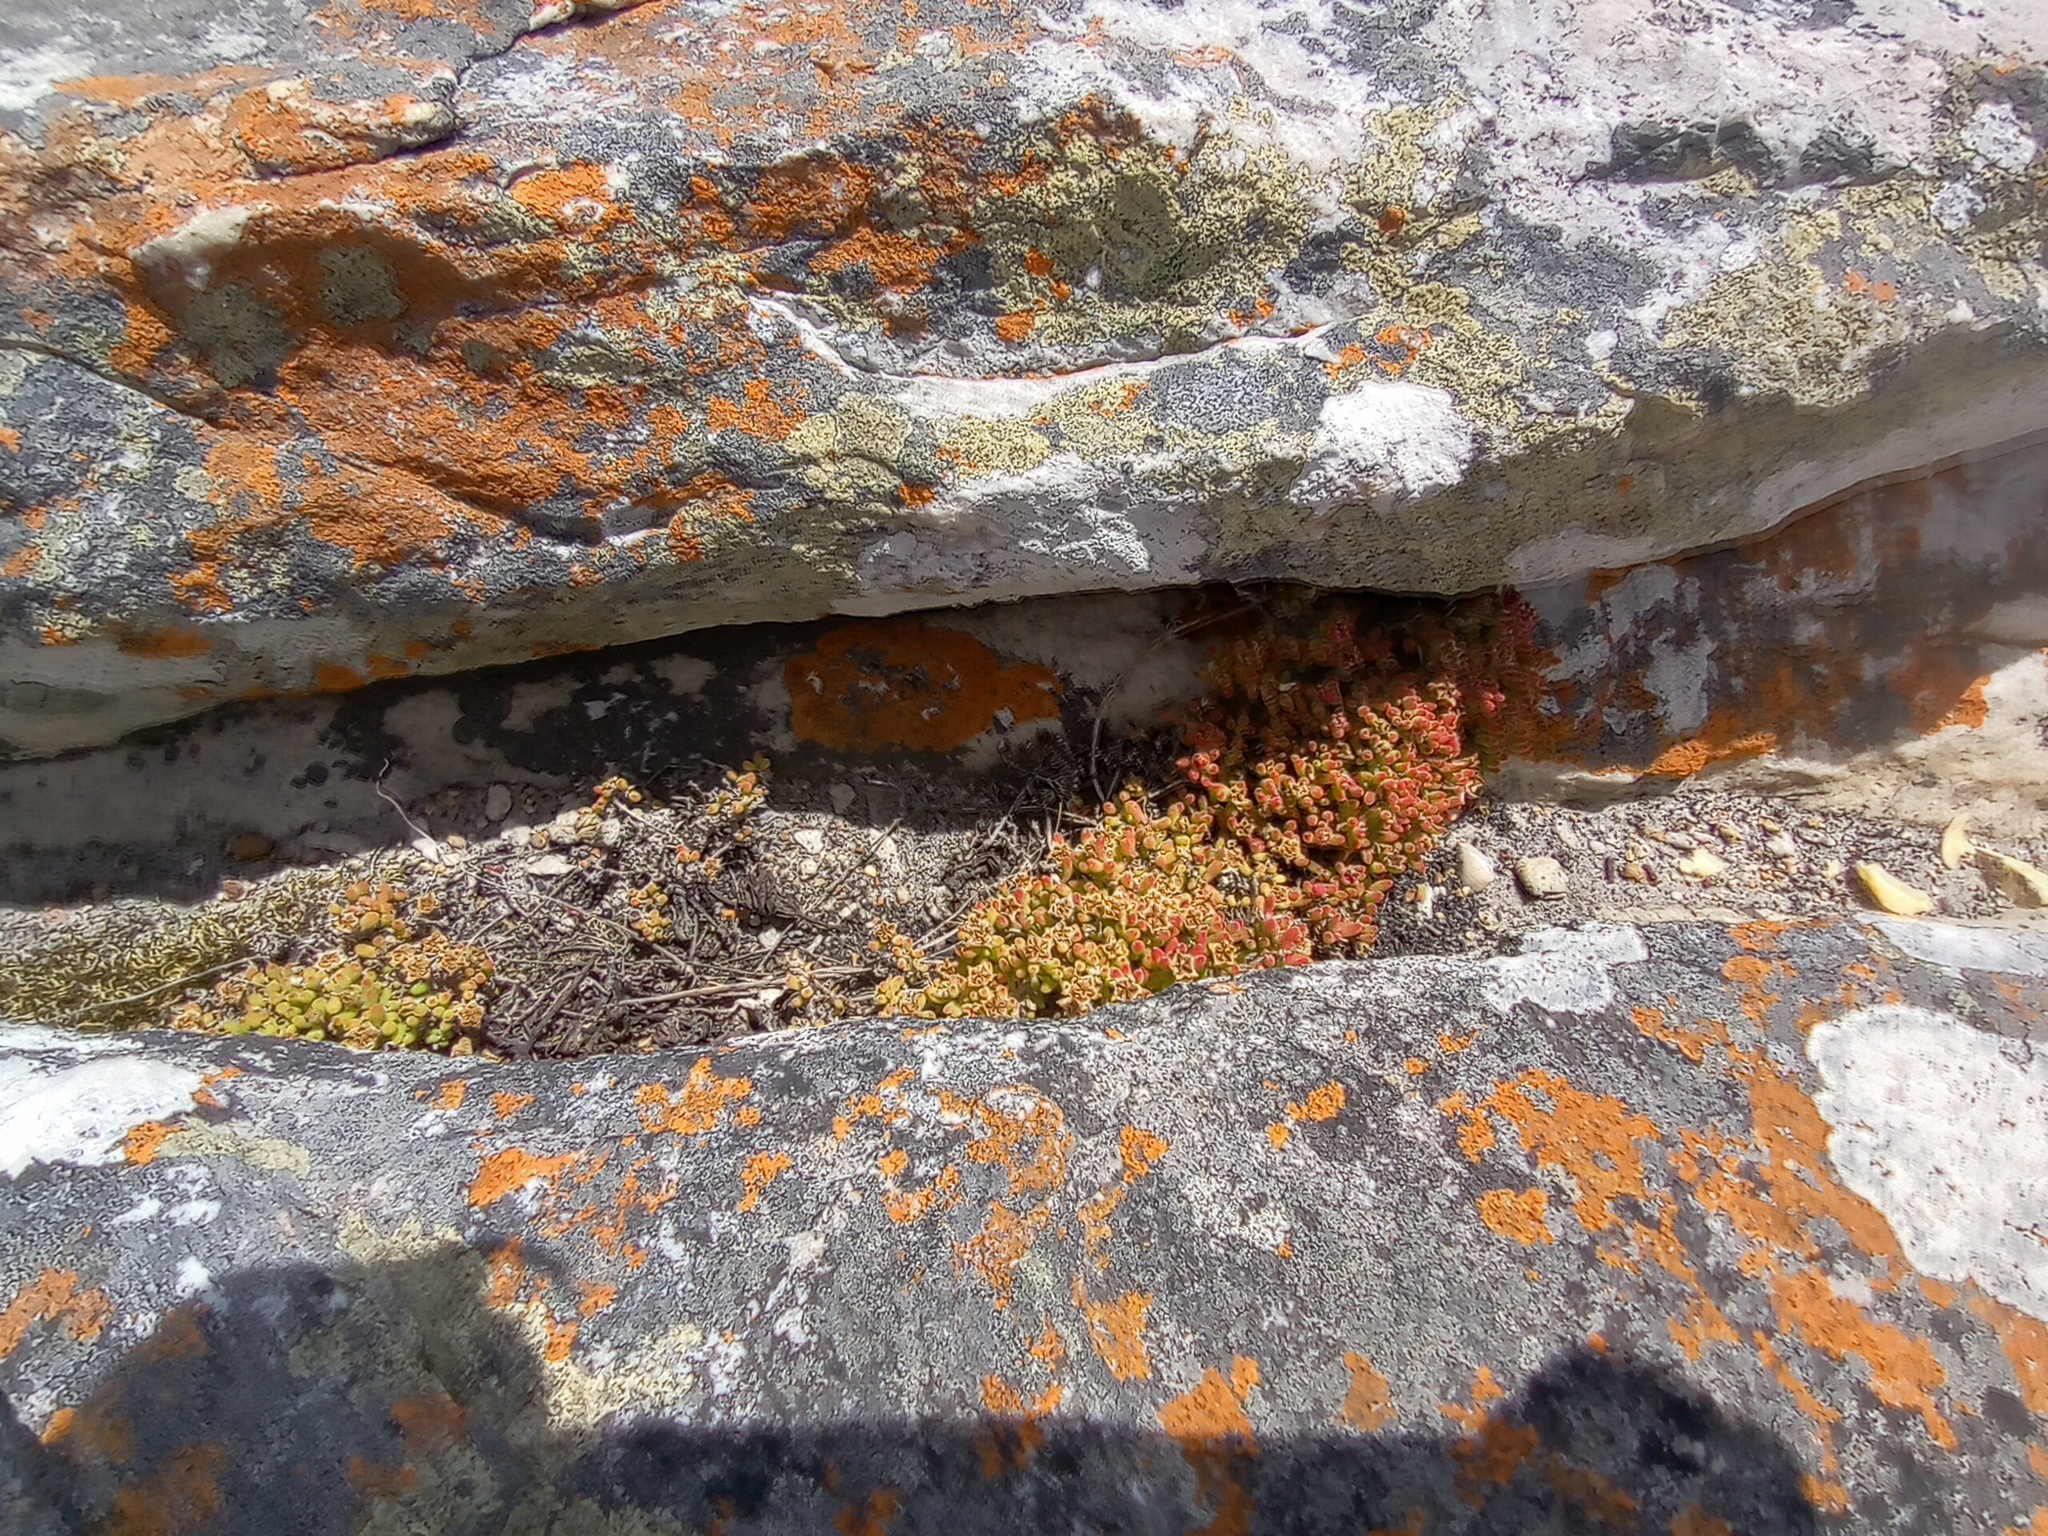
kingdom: Plantae
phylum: Tracheophyta
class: Magnoliopsida
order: Caryophyllales
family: Aizoaceae
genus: Drosanthemum
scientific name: Drosanthemum stokoei
